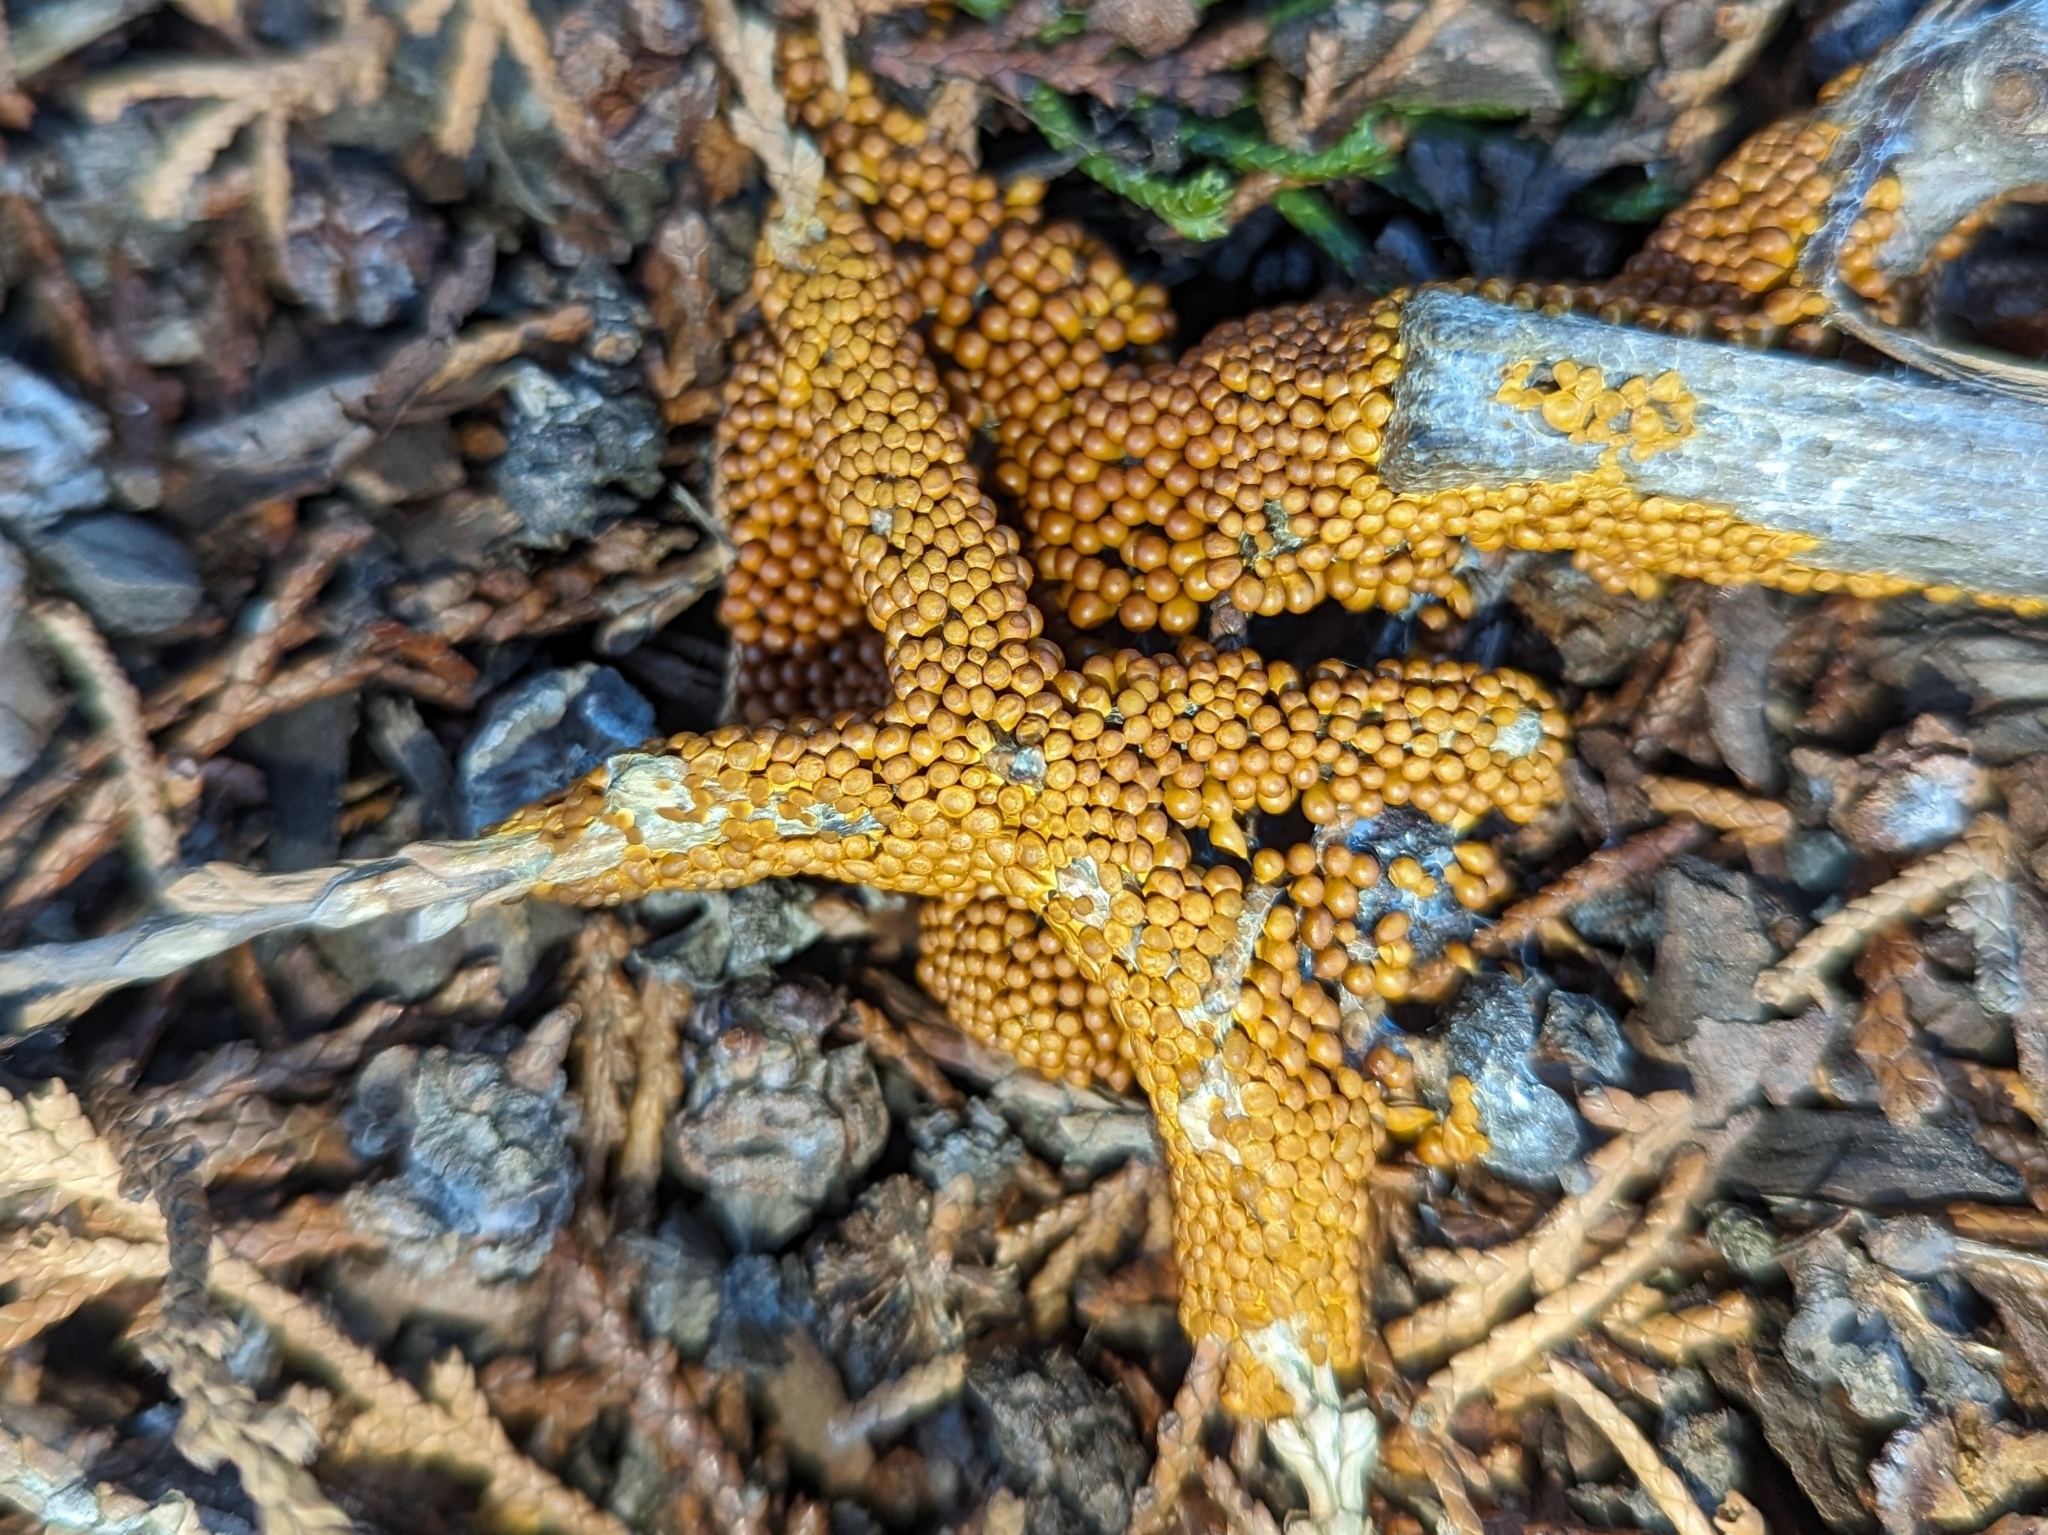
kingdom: Protozoa
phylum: Mycetozoa
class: Myxomycetes
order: Physarales
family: Physaraceae
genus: Leocarpus
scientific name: Leocarpus fragilis
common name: Insect-egg slime
